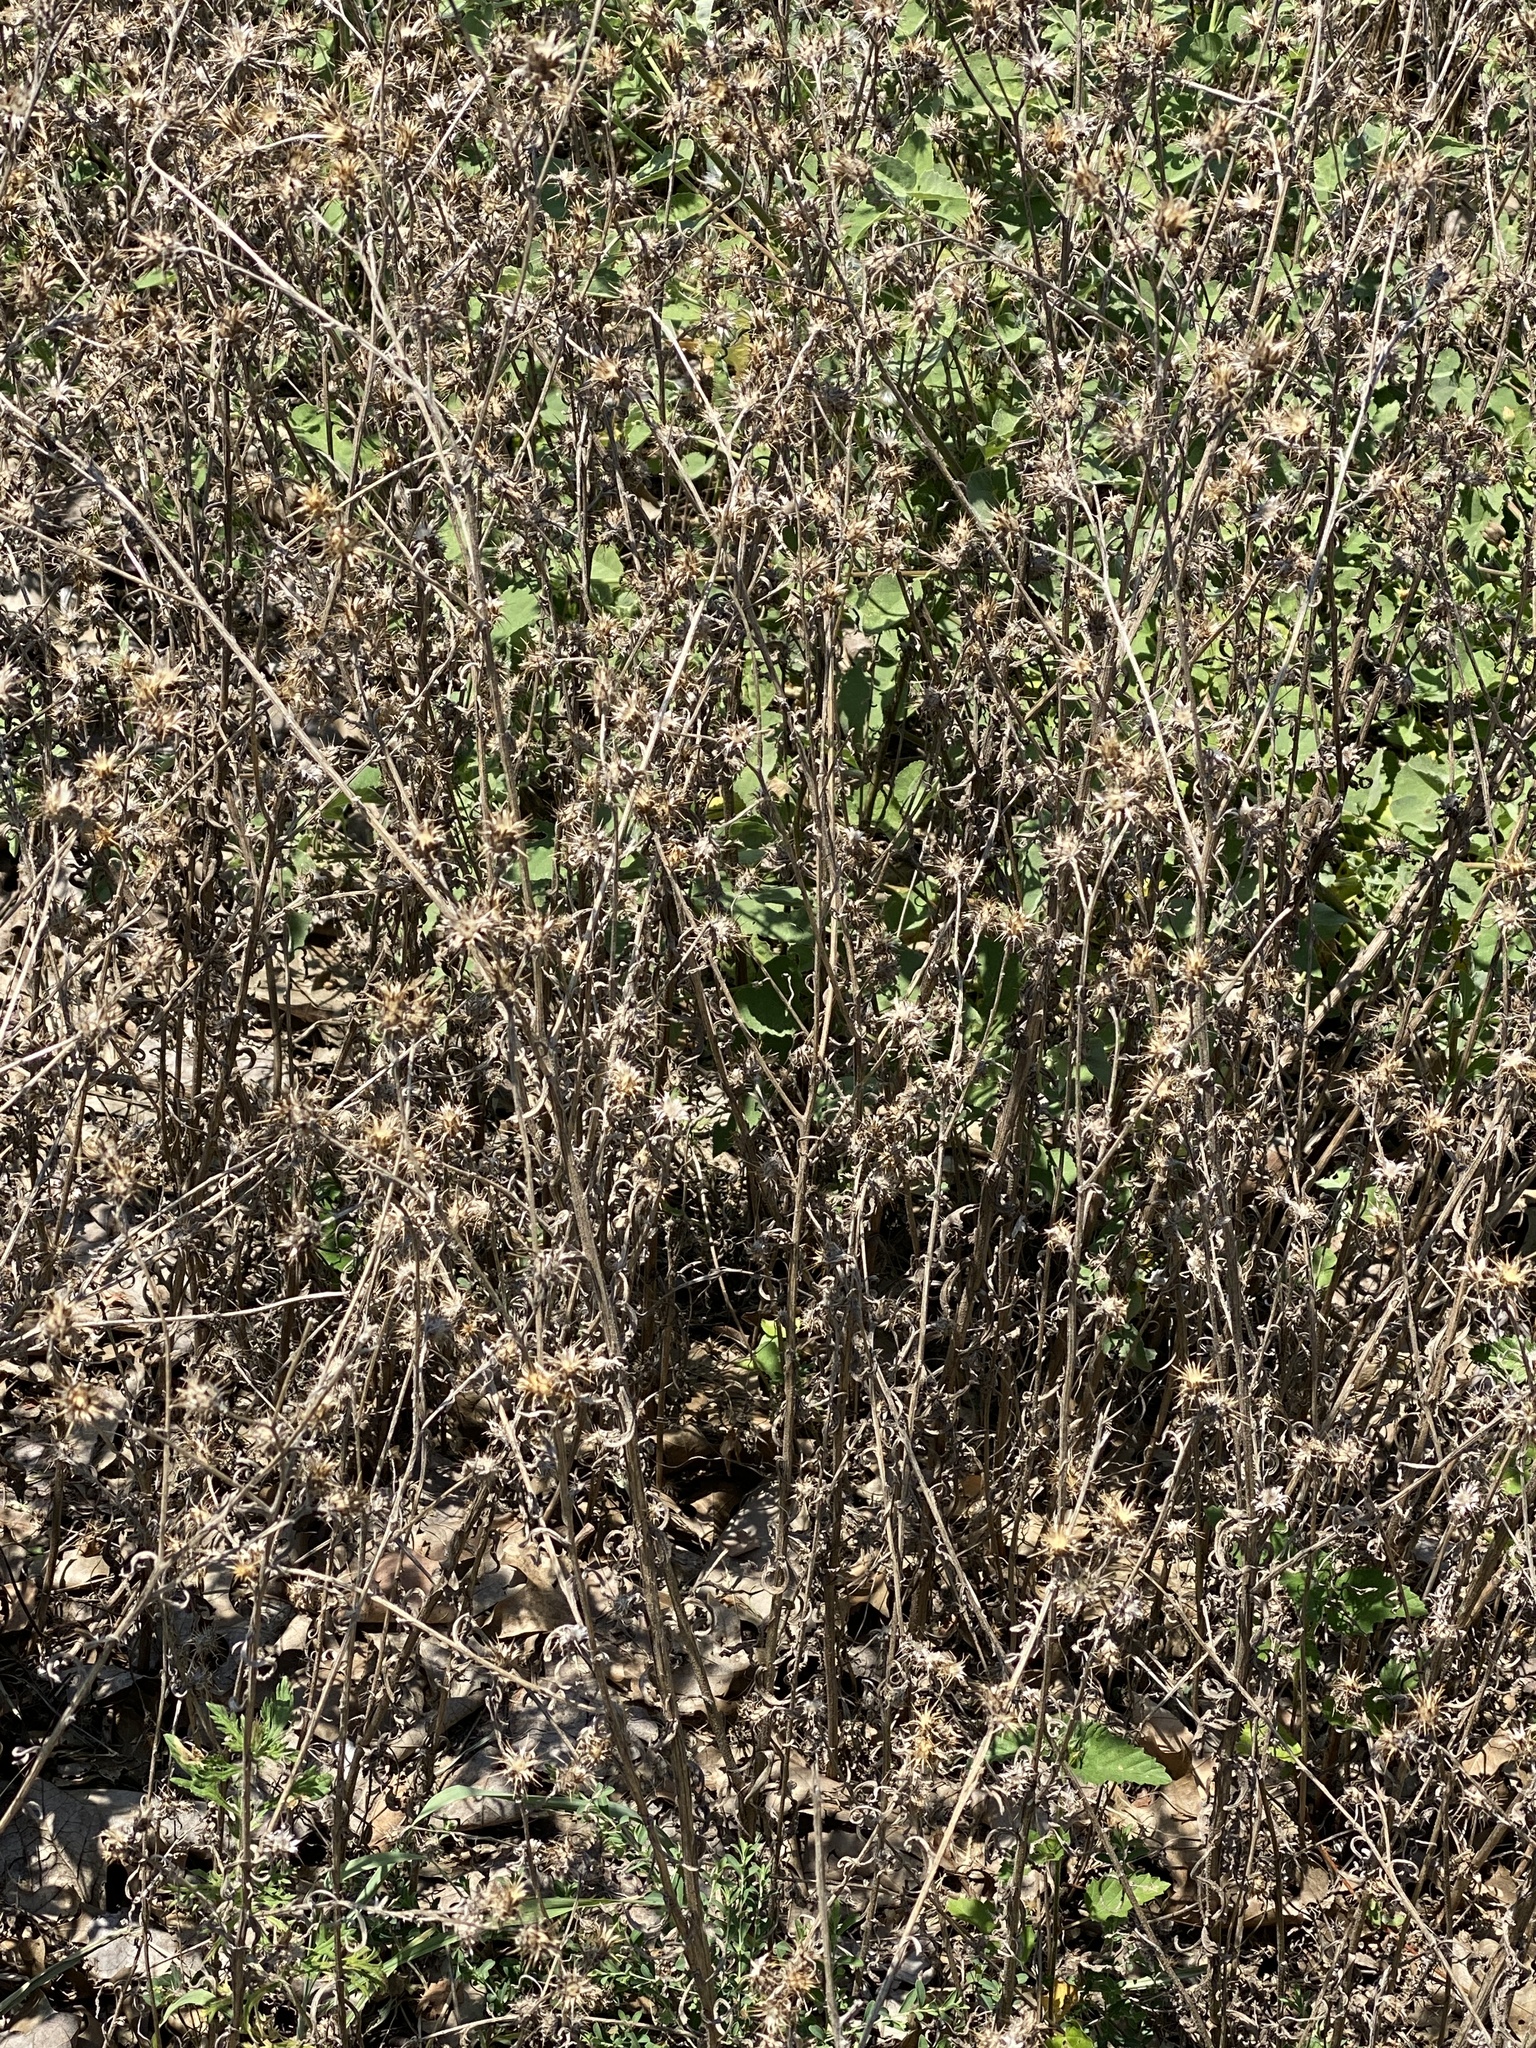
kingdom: Plantae
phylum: Tracheophyta
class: Magnoliopsida
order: Asterales
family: Asteraceae
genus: Centaurea
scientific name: Centaurea melitensis
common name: Maltese star-thistle
